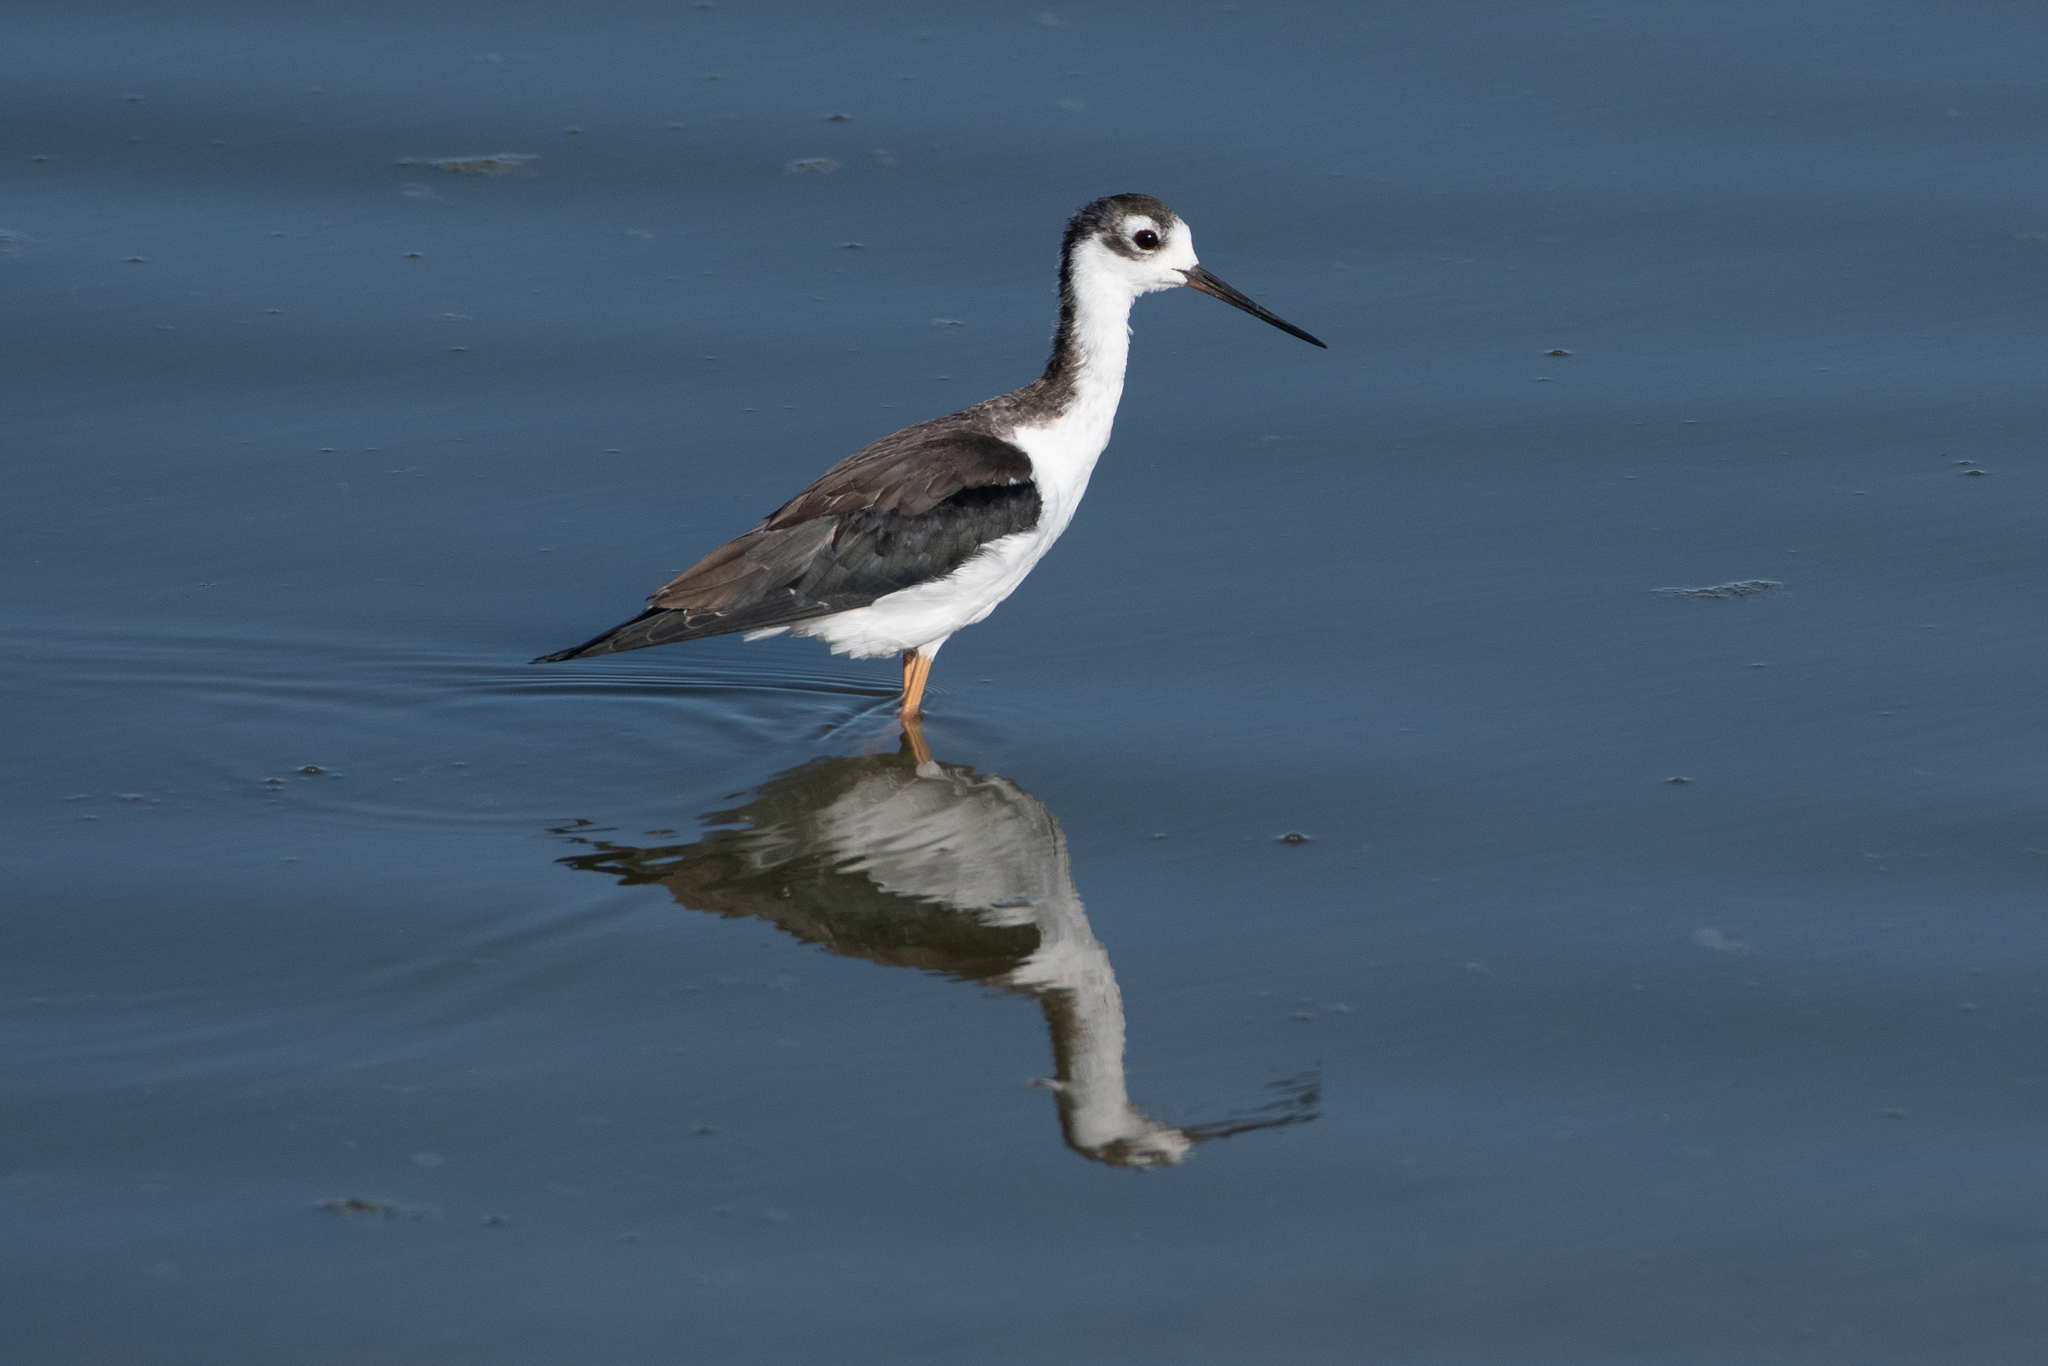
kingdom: Animalia
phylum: Chordata
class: Aves
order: Charadriiformes
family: Recurvirostridae
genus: Himantopus
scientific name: Himantopus mexicanus
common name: Black-necked stilt
